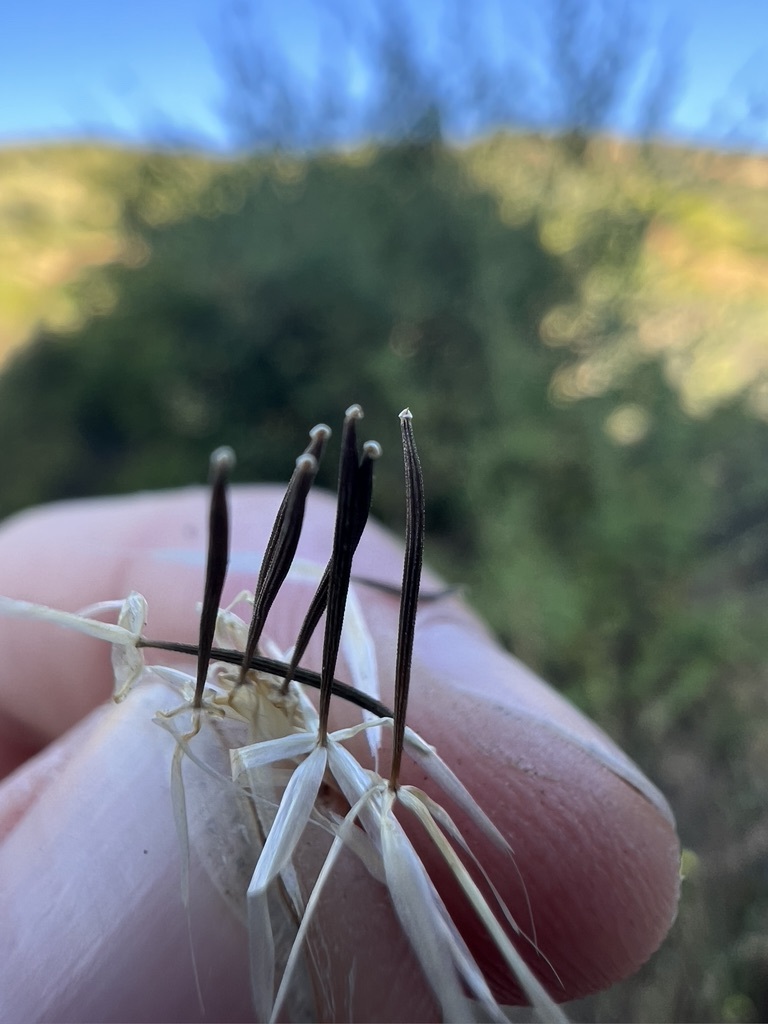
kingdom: Plantae
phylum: Tracheophyta
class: Magnoliopsida
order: Asterales
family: Asteraceae
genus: Microseris
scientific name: Microseris lindleyi
